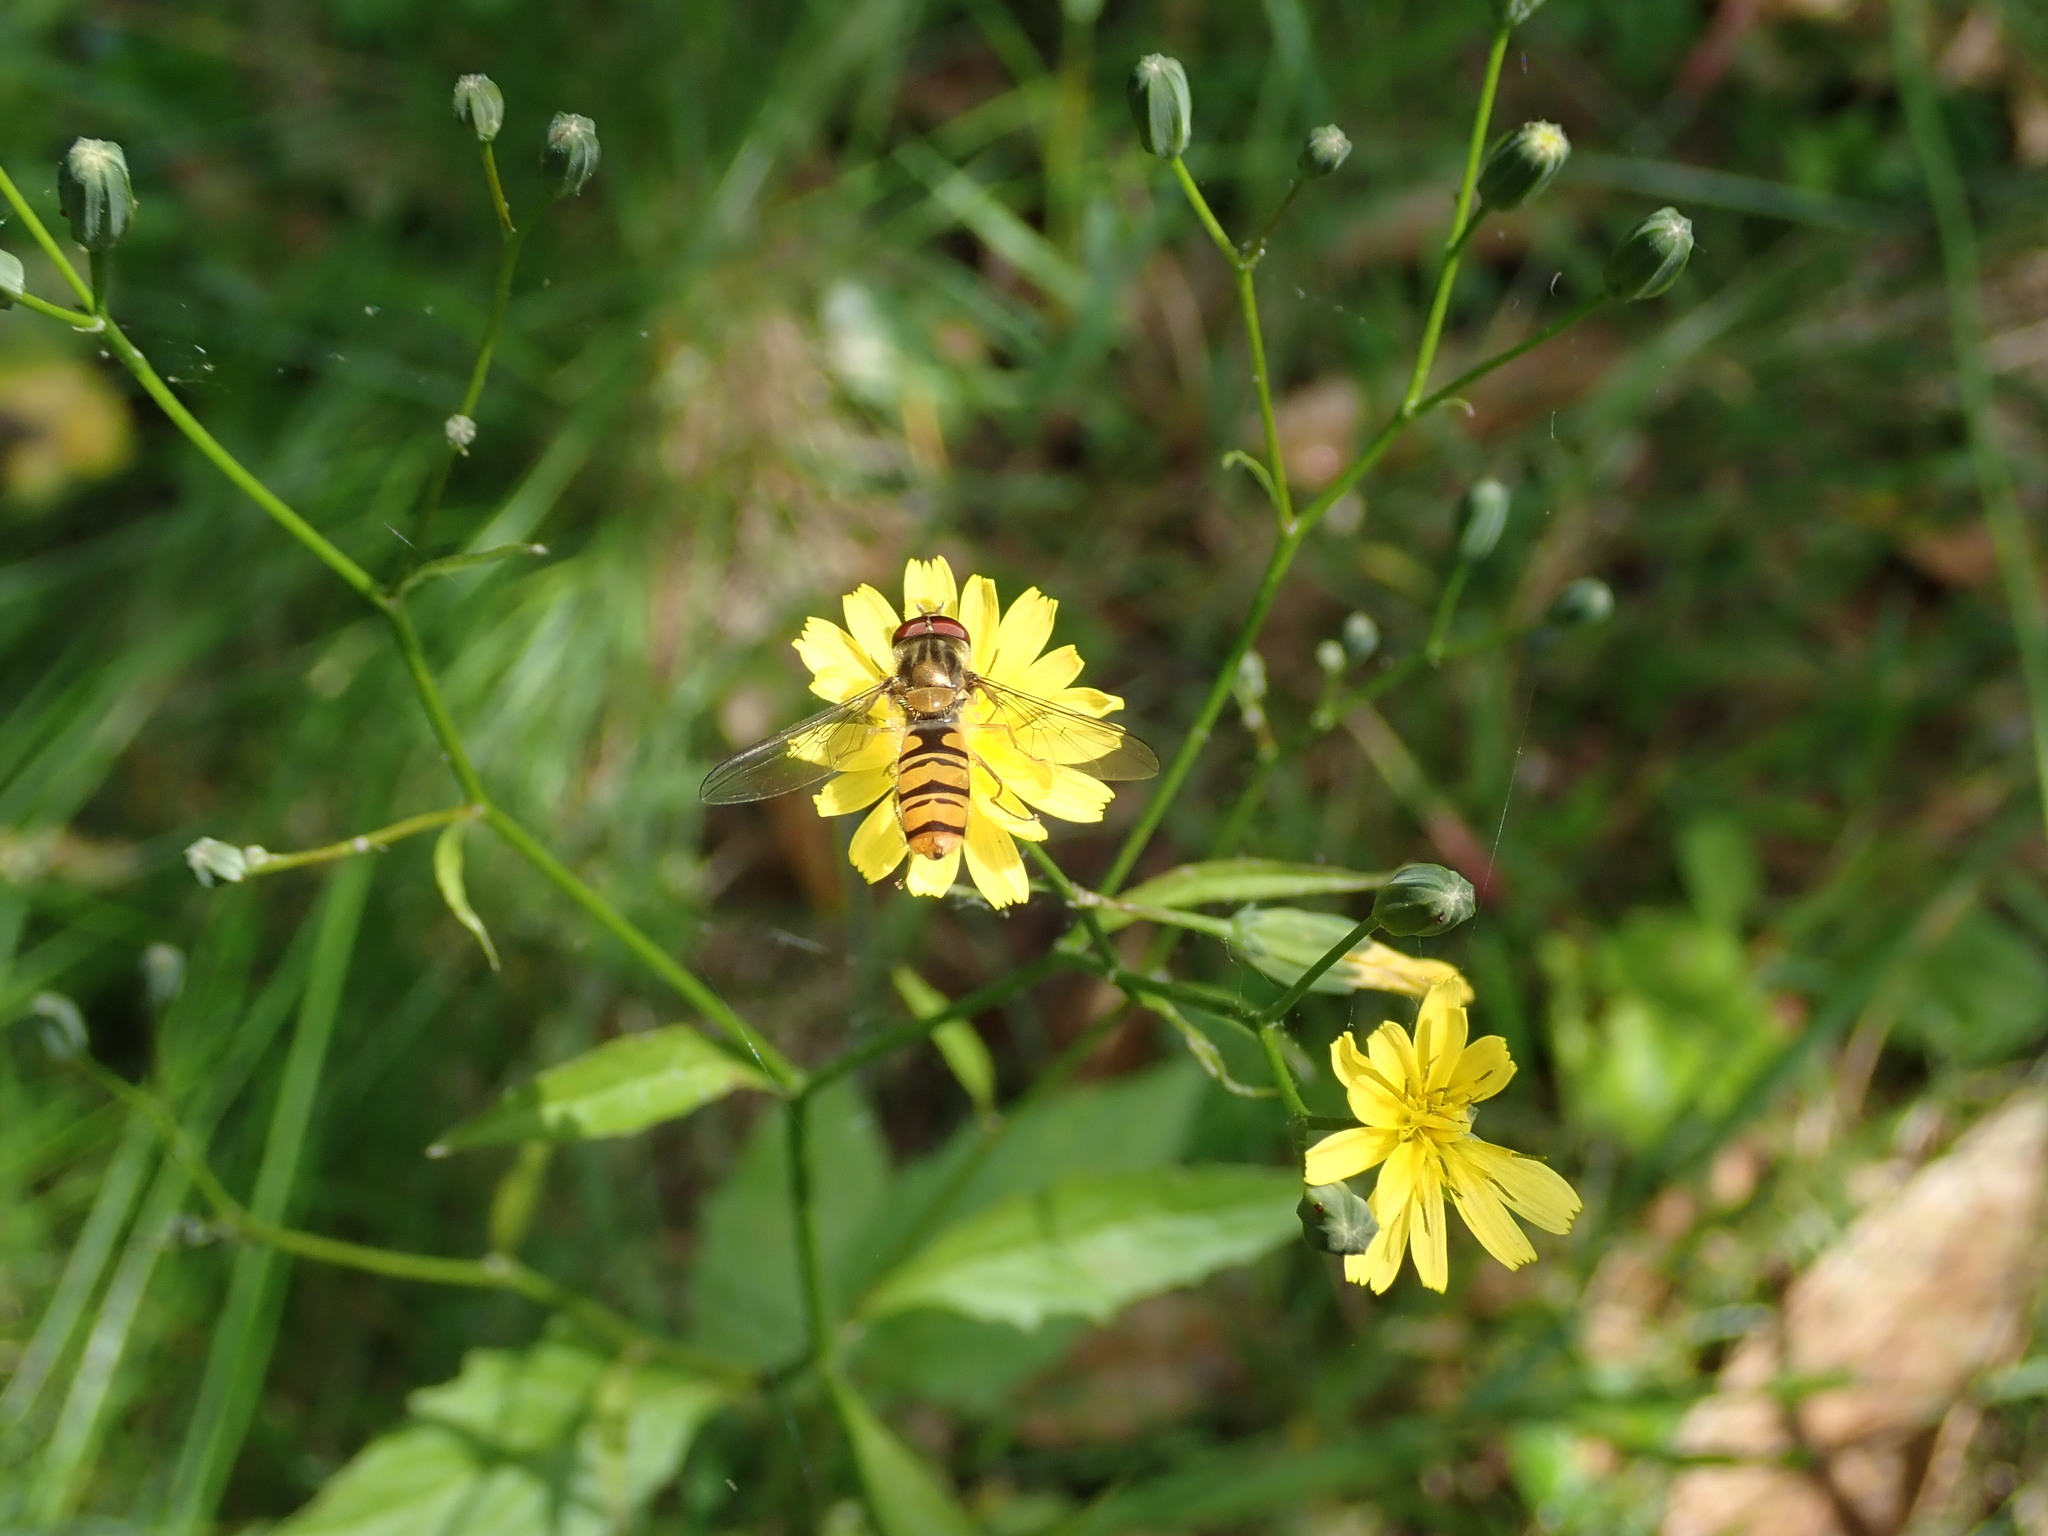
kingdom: Animalia
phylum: Arthropoda
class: Insecta
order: Diptera
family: Syrphidae
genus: Episyrphus
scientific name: Episyrphus balteatus
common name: Marmalade hoverfly
